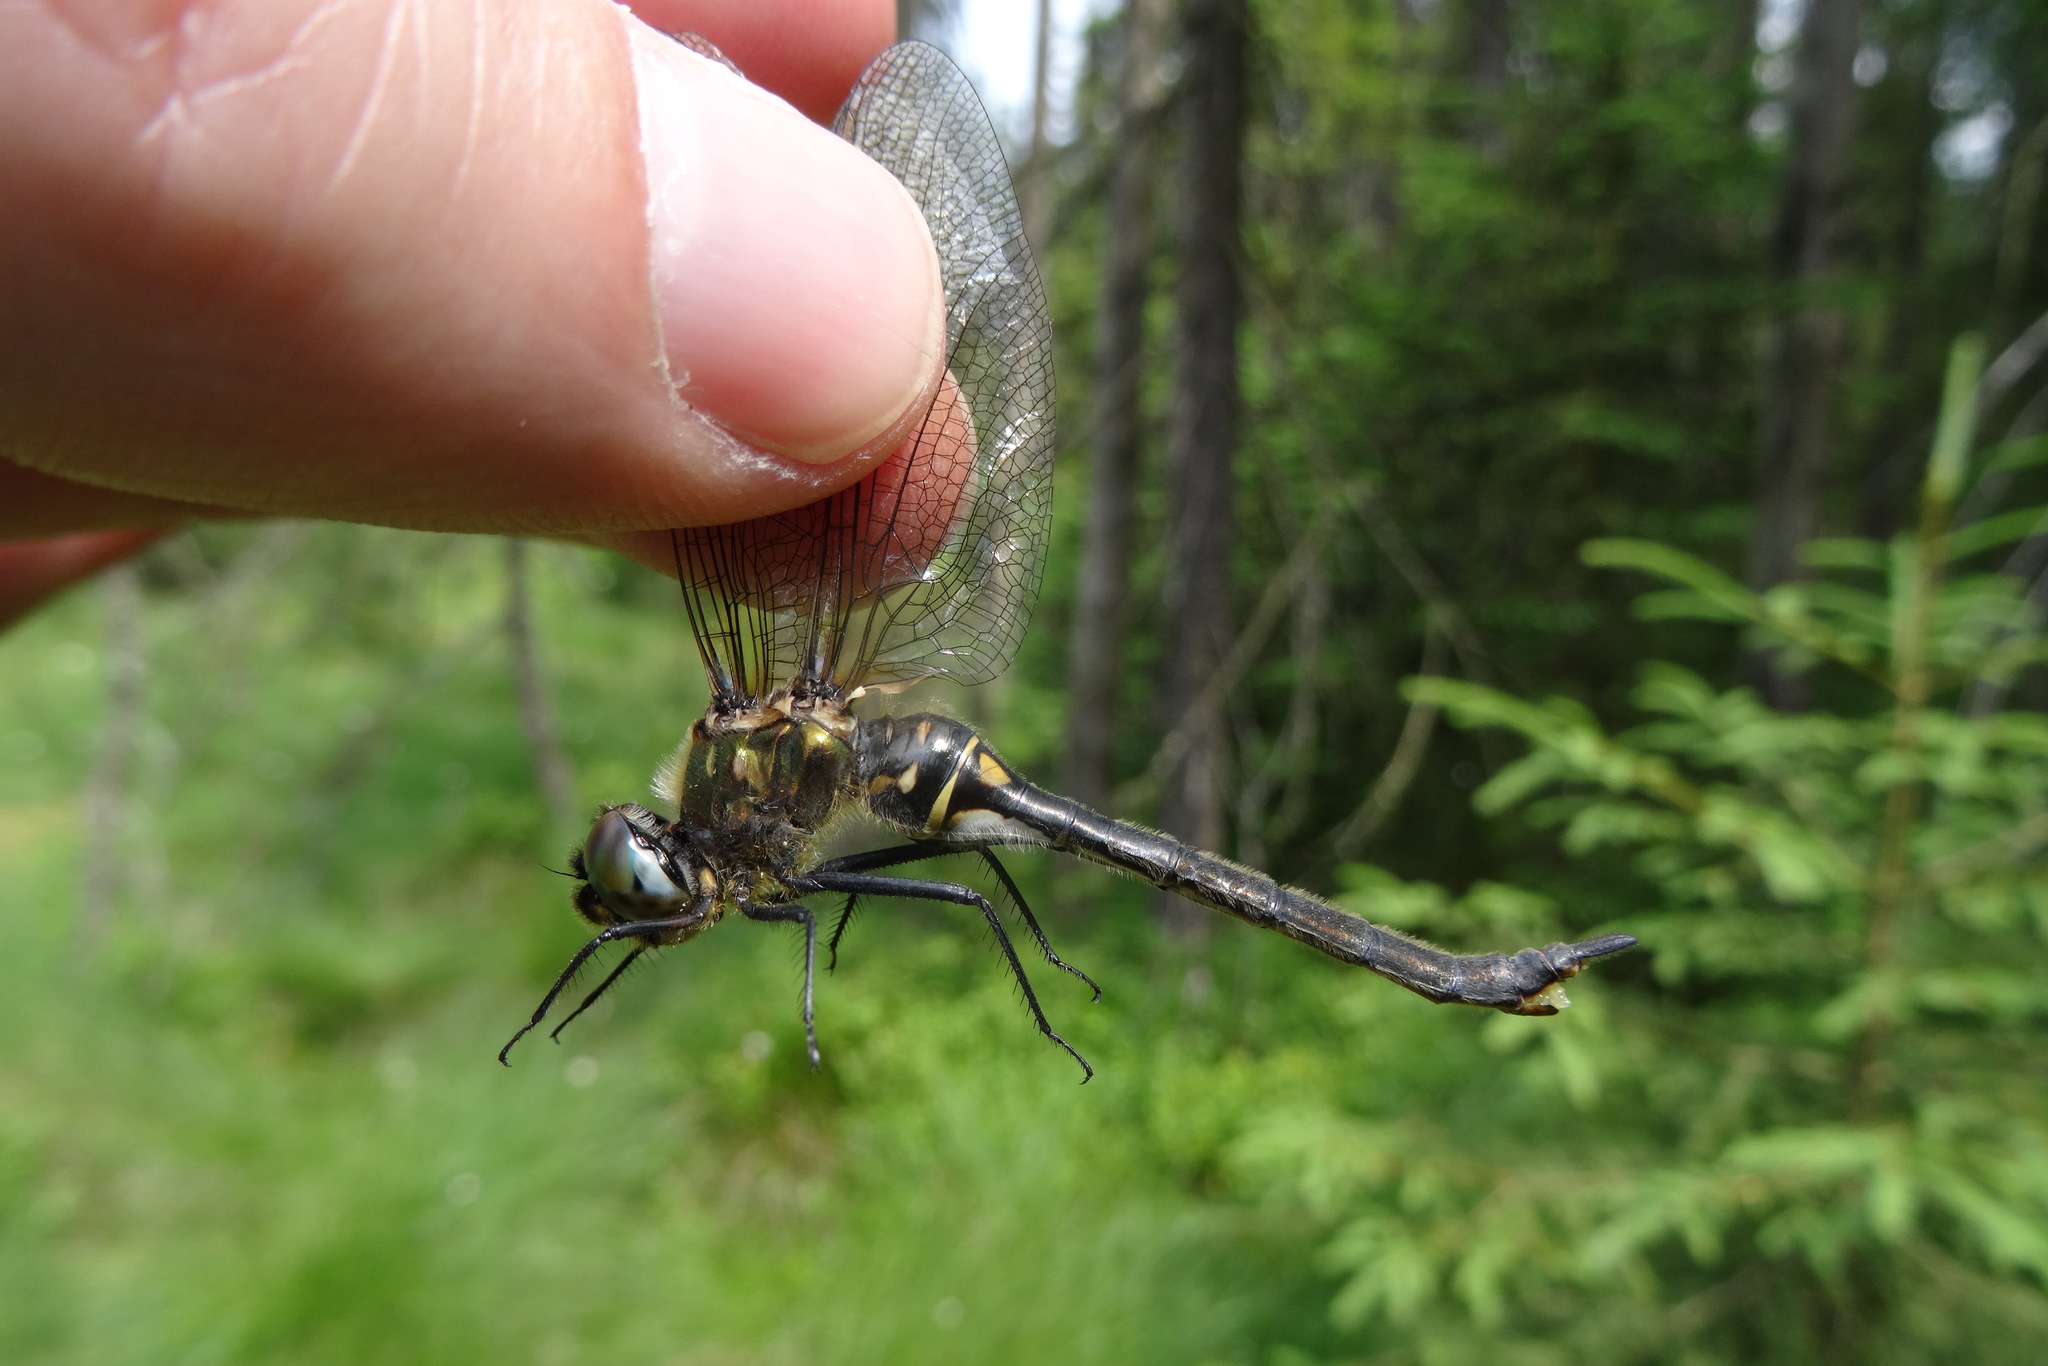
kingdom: Animalia
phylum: Arthropoda
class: Insecta
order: Odonata
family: Corduliidae
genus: Somatochlora
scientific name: Somatochlora arctica
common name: Northern emerald
